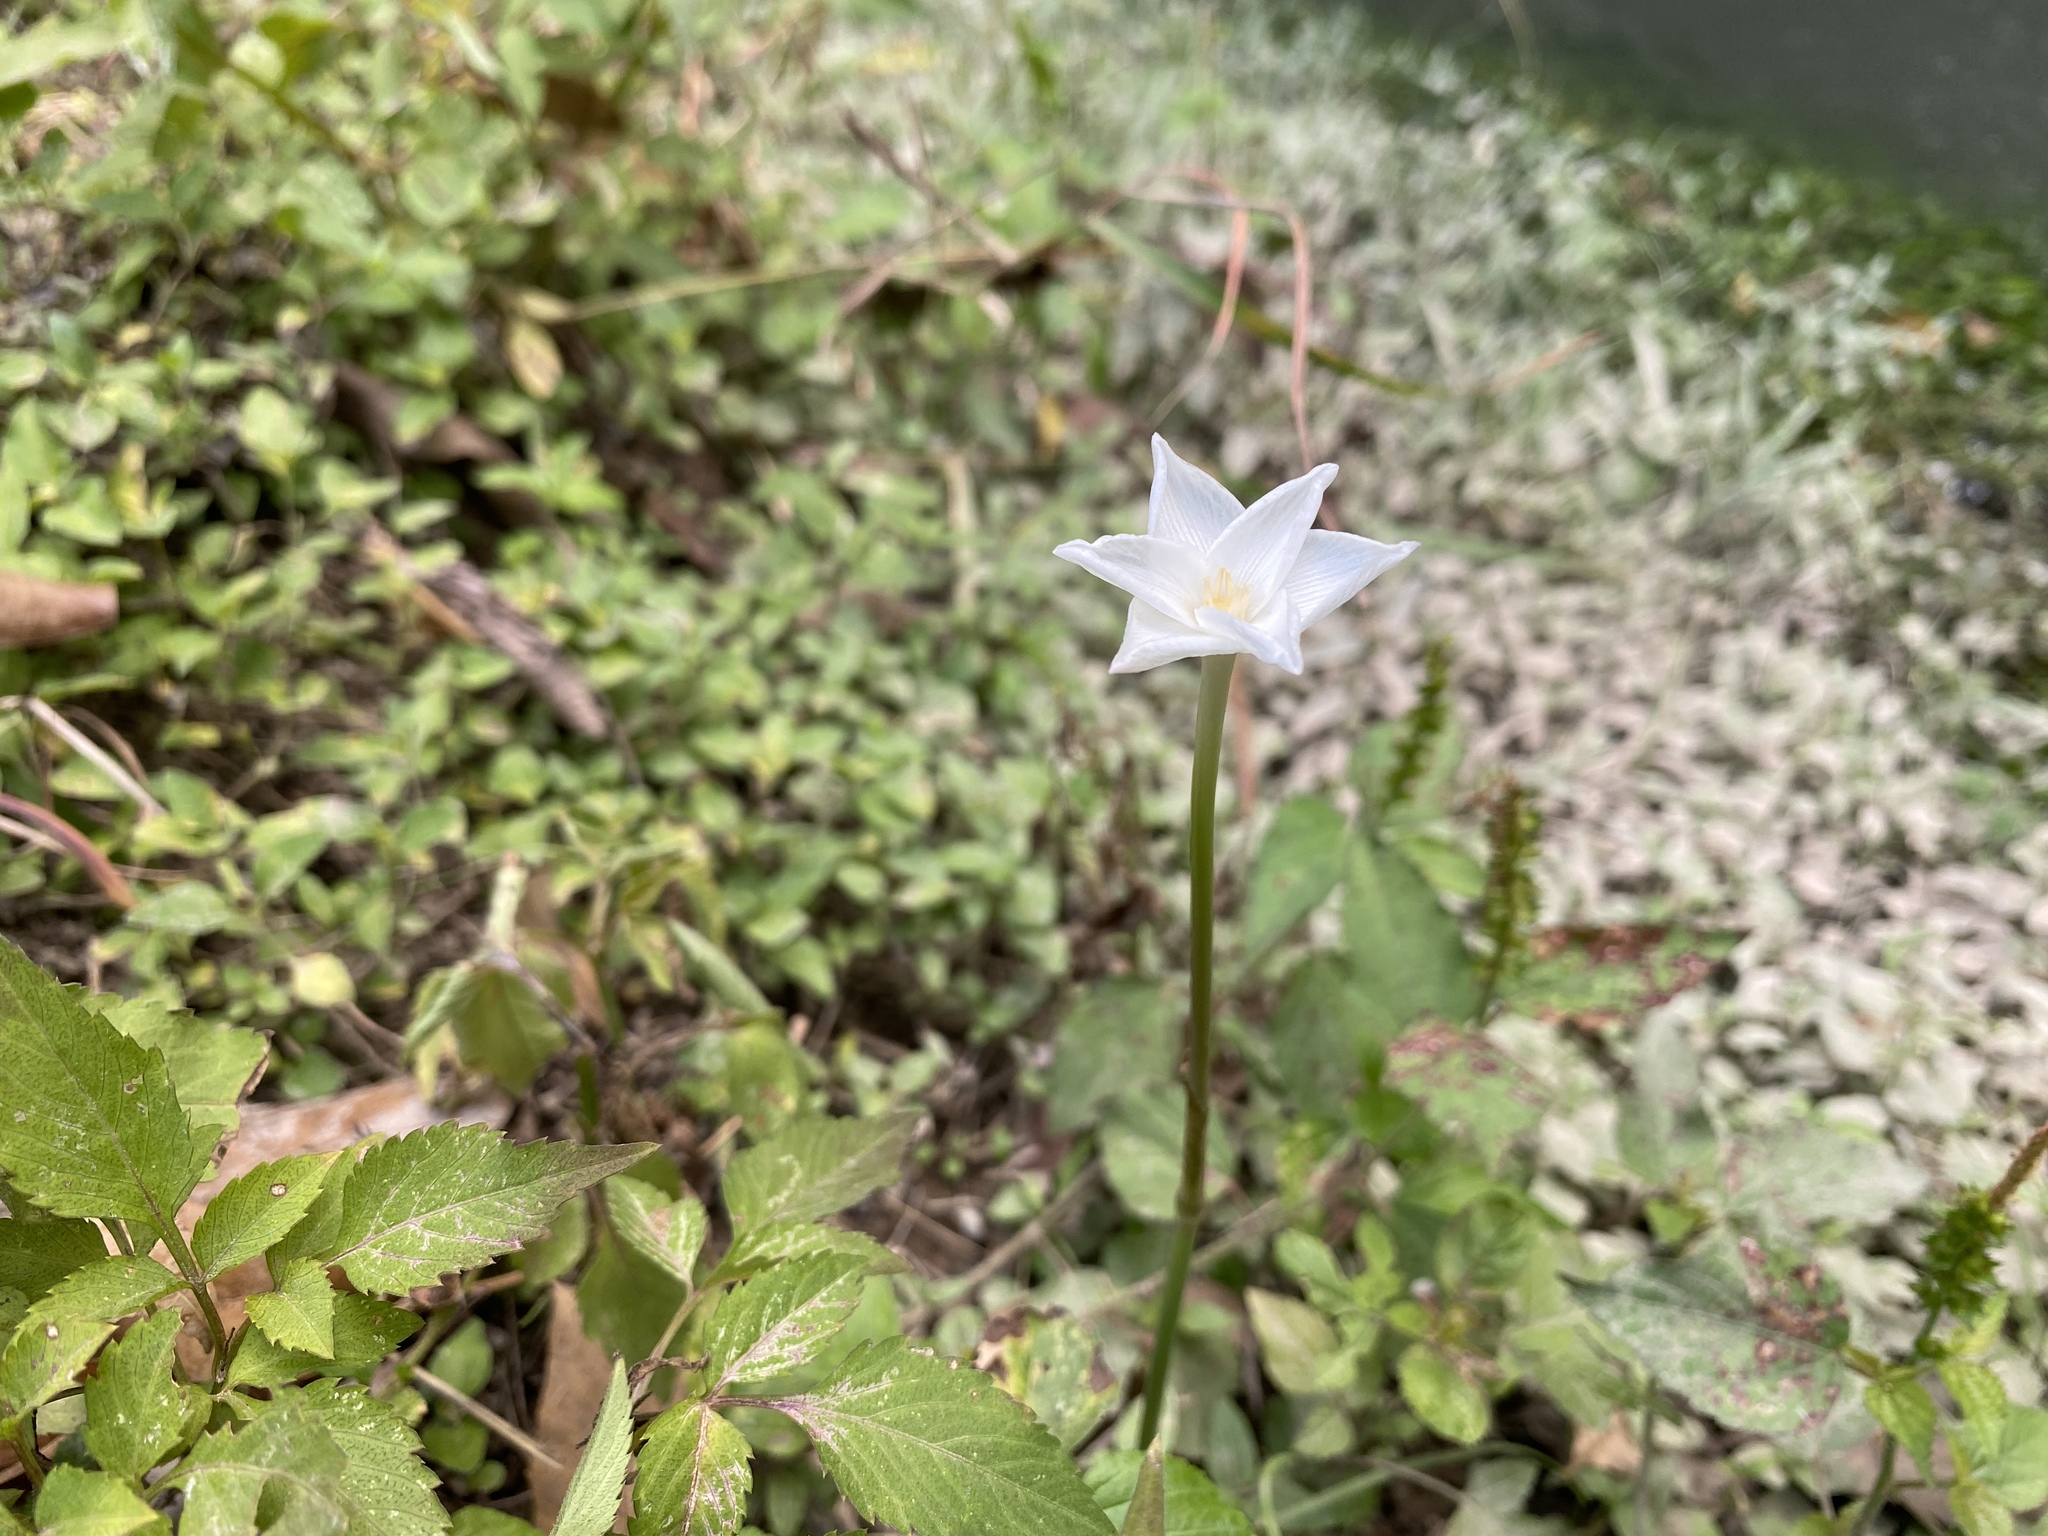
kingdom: Plantae
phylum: Tracheophyta
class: Liliopsida
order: Asparagales
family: Amaryllidaceae
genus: Zephyranthes
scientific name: Zephyranthes chlorosolen
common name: Evening rain-lily
